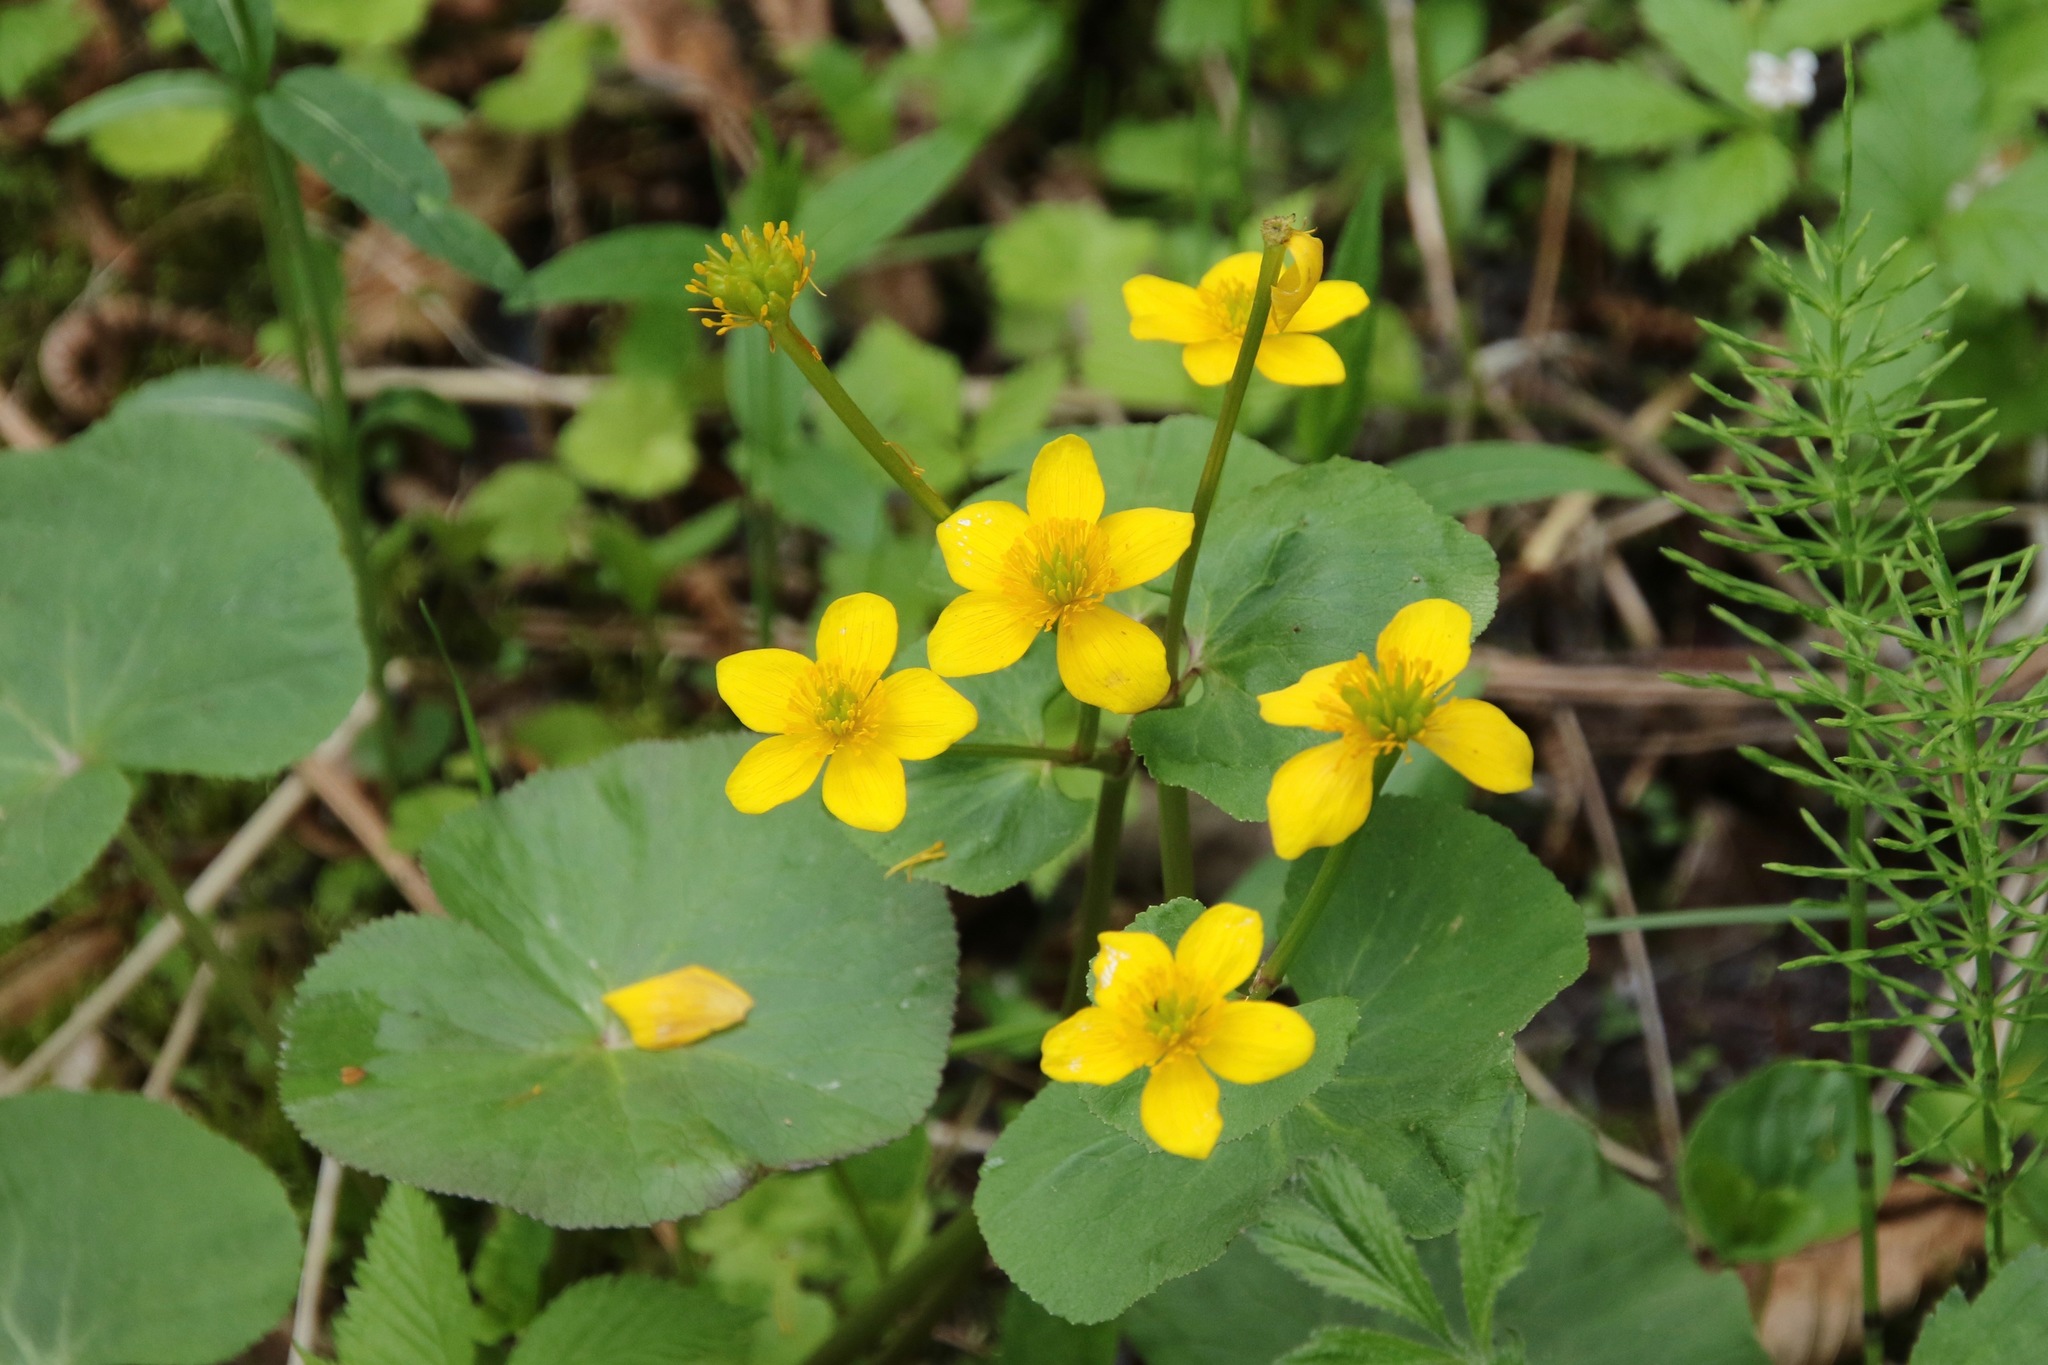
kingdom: Plantae
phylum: Tracheophyta
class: Magnoliopsida
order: Ranunculales
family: Ranunculaceae
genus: Caltha
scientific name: Caltha palustris
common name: Marsh marigold
